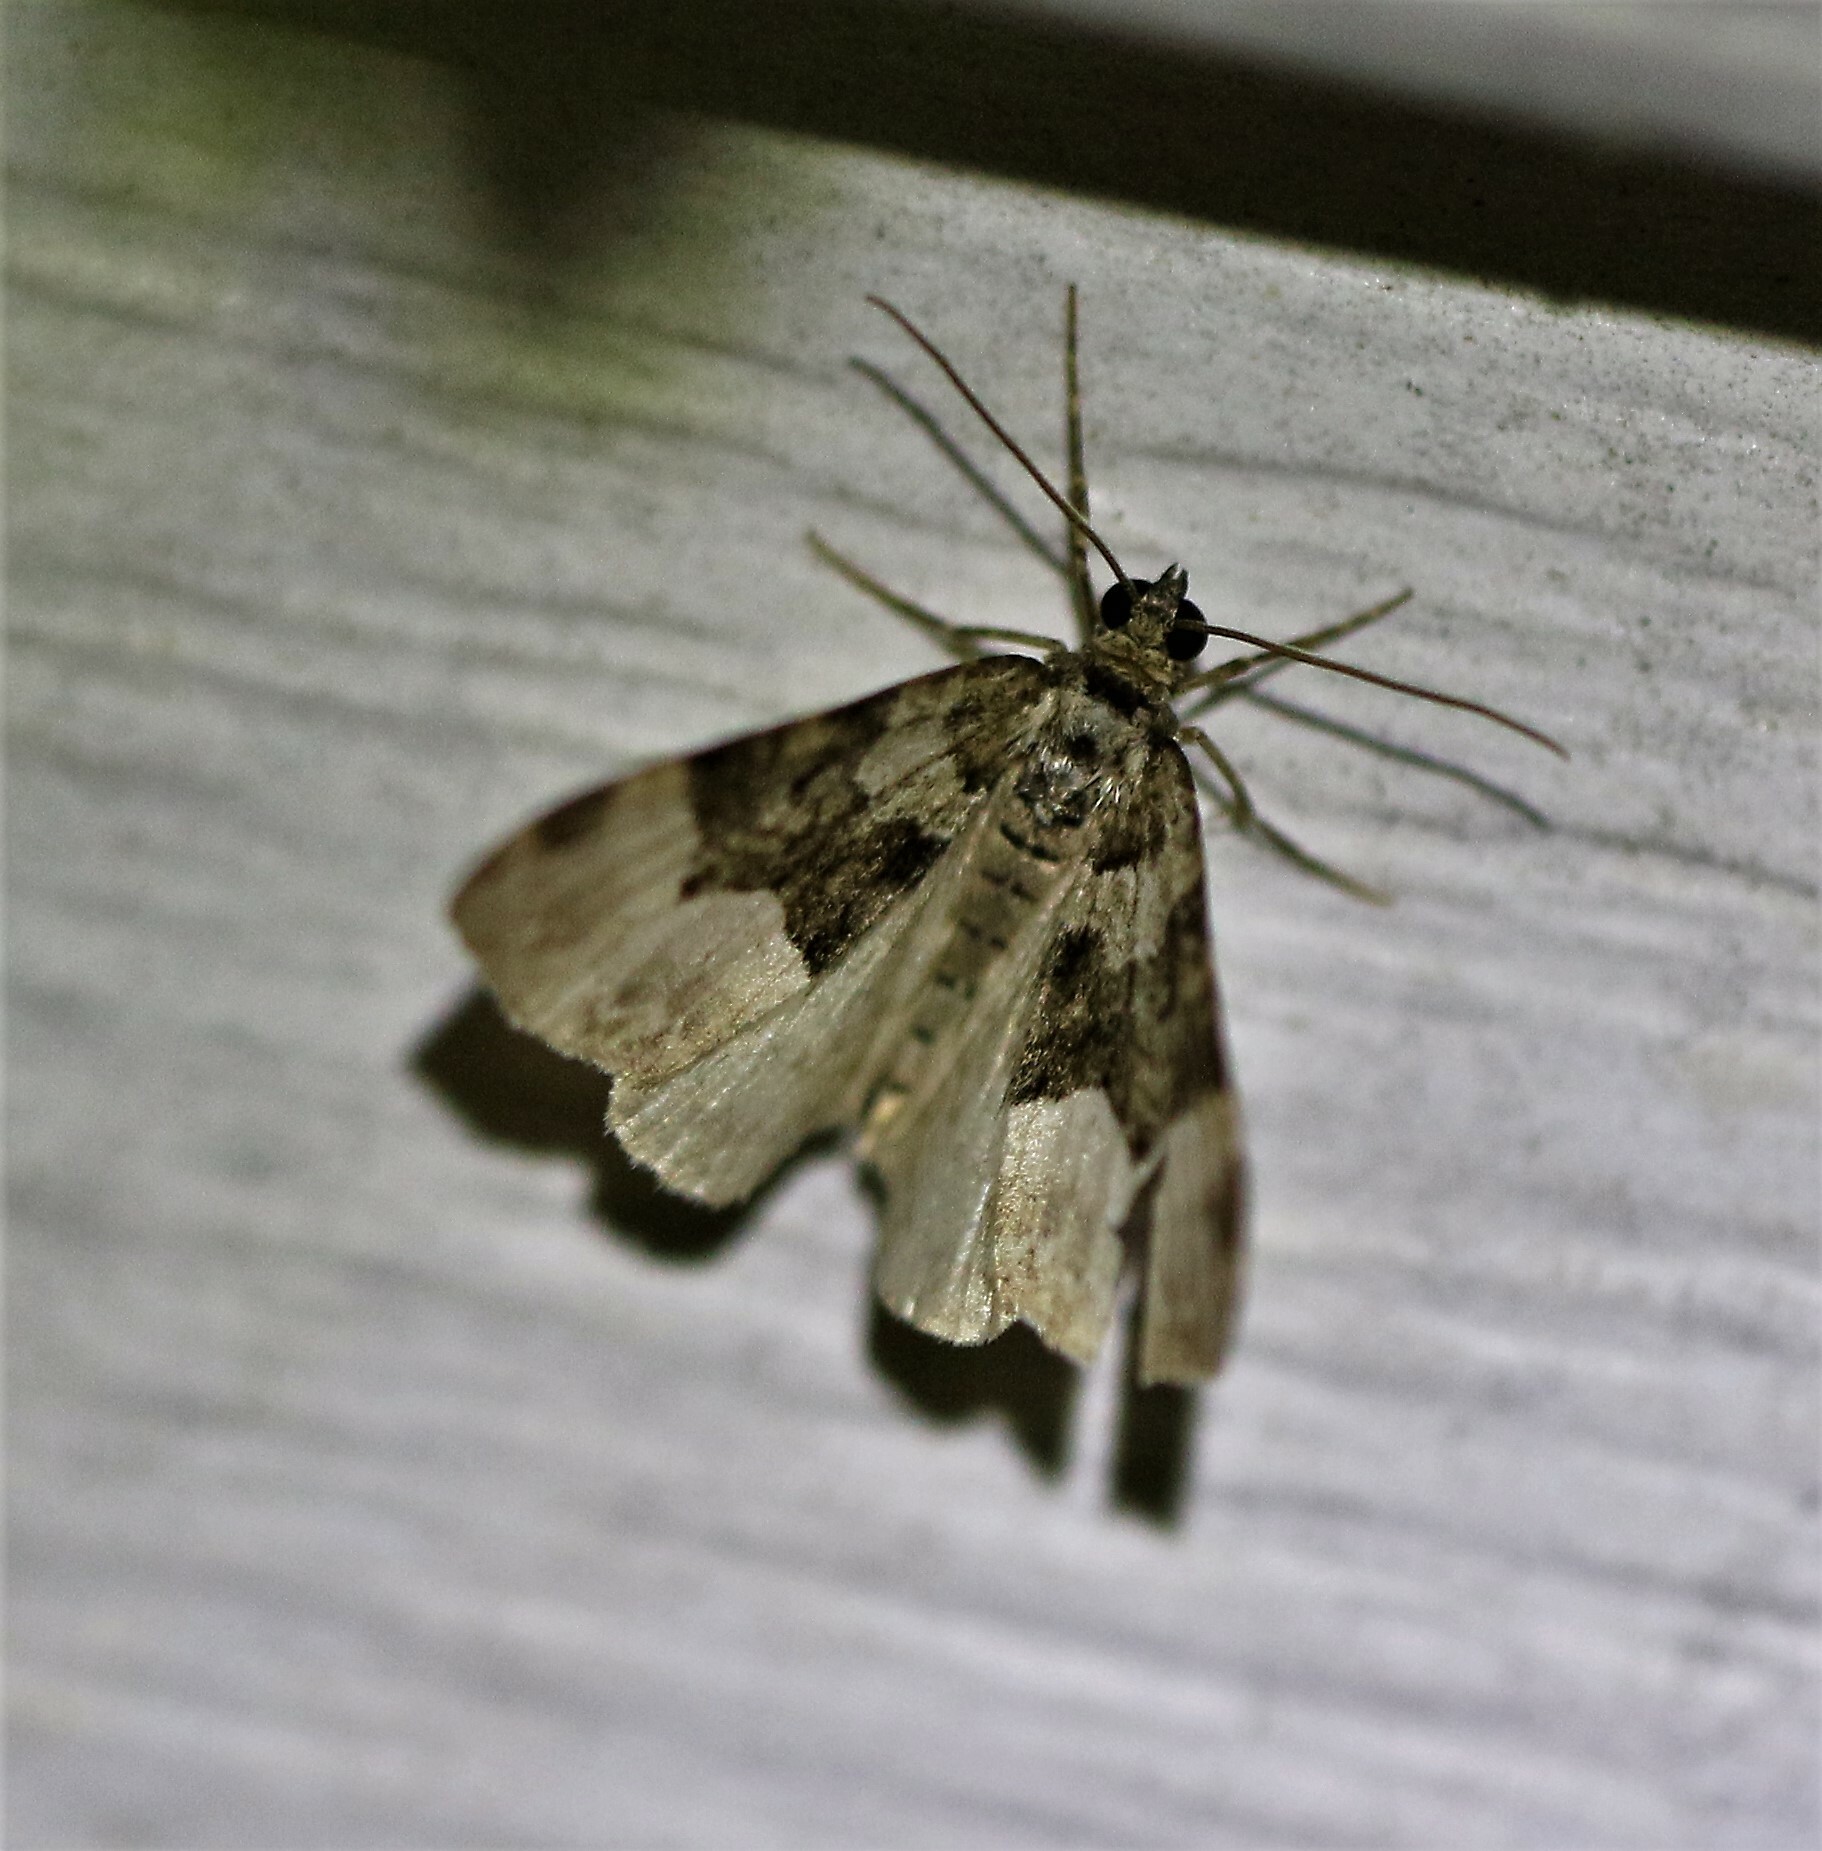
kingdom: Animalia
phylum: Arthropoda
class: Insecta
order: Lepidoptera
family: Geometridae
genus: Euphyia
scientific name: Euphyia intermediata
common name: Sharp-angled carpet
